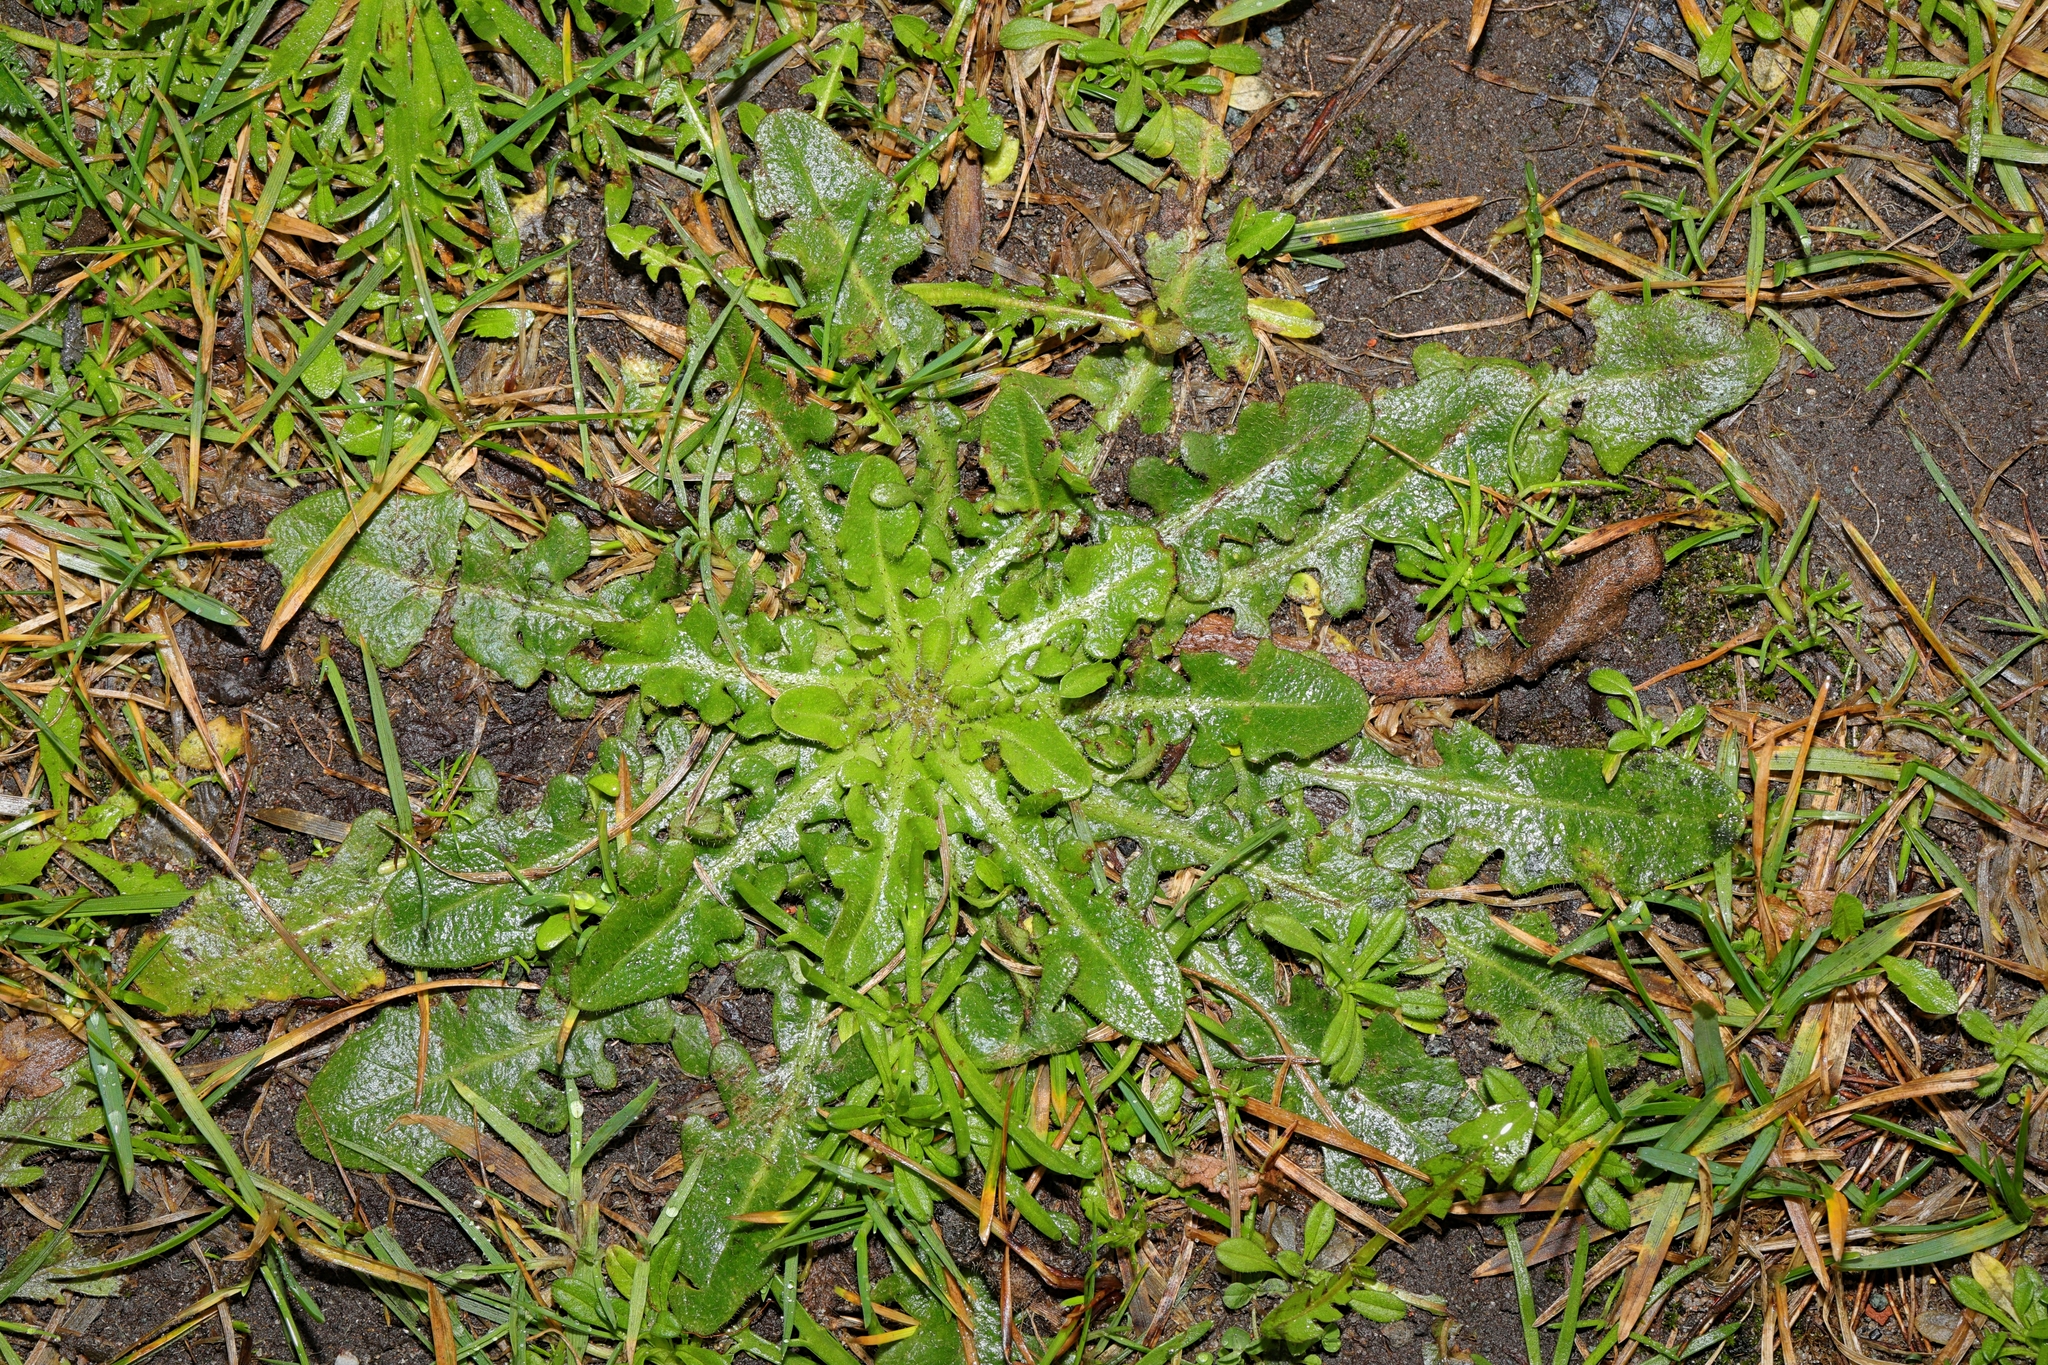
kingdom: Plantae
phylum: Tracheophyta
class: Magnoliopsida
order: Asterales
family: Asteraceae
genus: Hypochaeris
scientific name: Hypochaeris radicata
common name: Flatweed
